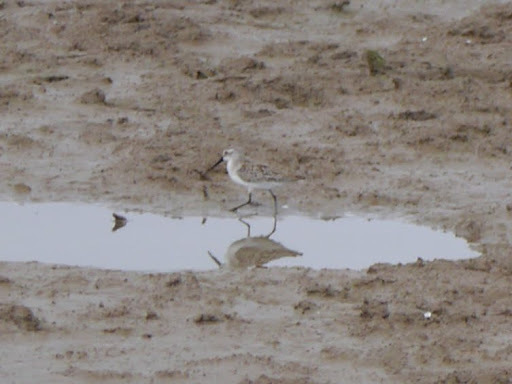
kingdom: Animalia
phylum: Chordata
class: Aves
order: Charadriiformes
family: Scolopacidae
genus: Calidris
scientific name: Calidris mauri
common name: Western sandpiper
